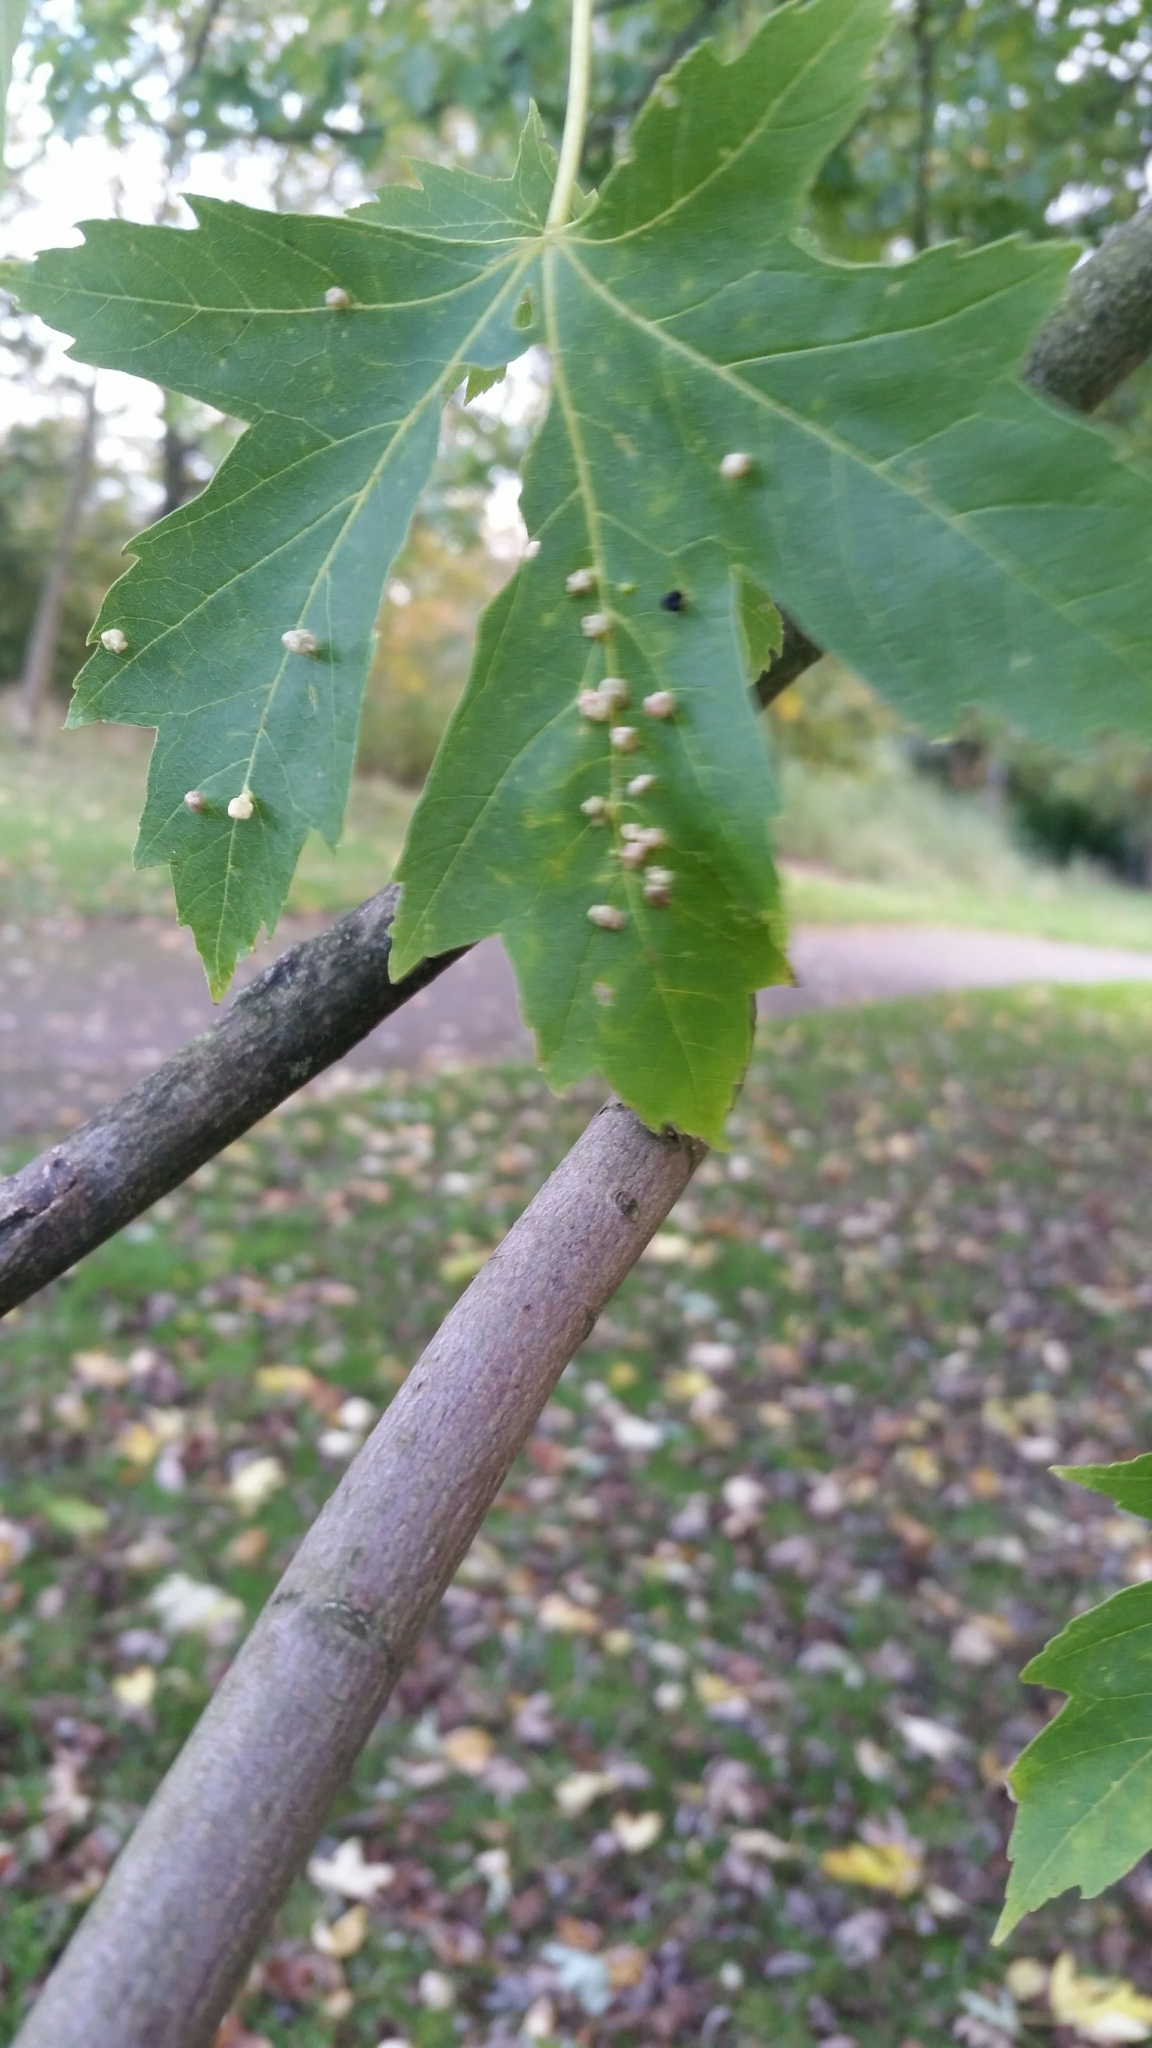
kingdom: Animalia
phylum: Arthropoda
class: Arachnida
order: Trombidiformes
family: Eriophyidae
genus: Vasates
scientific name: Vasates quadripedes
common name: Maple bladder gall mite
